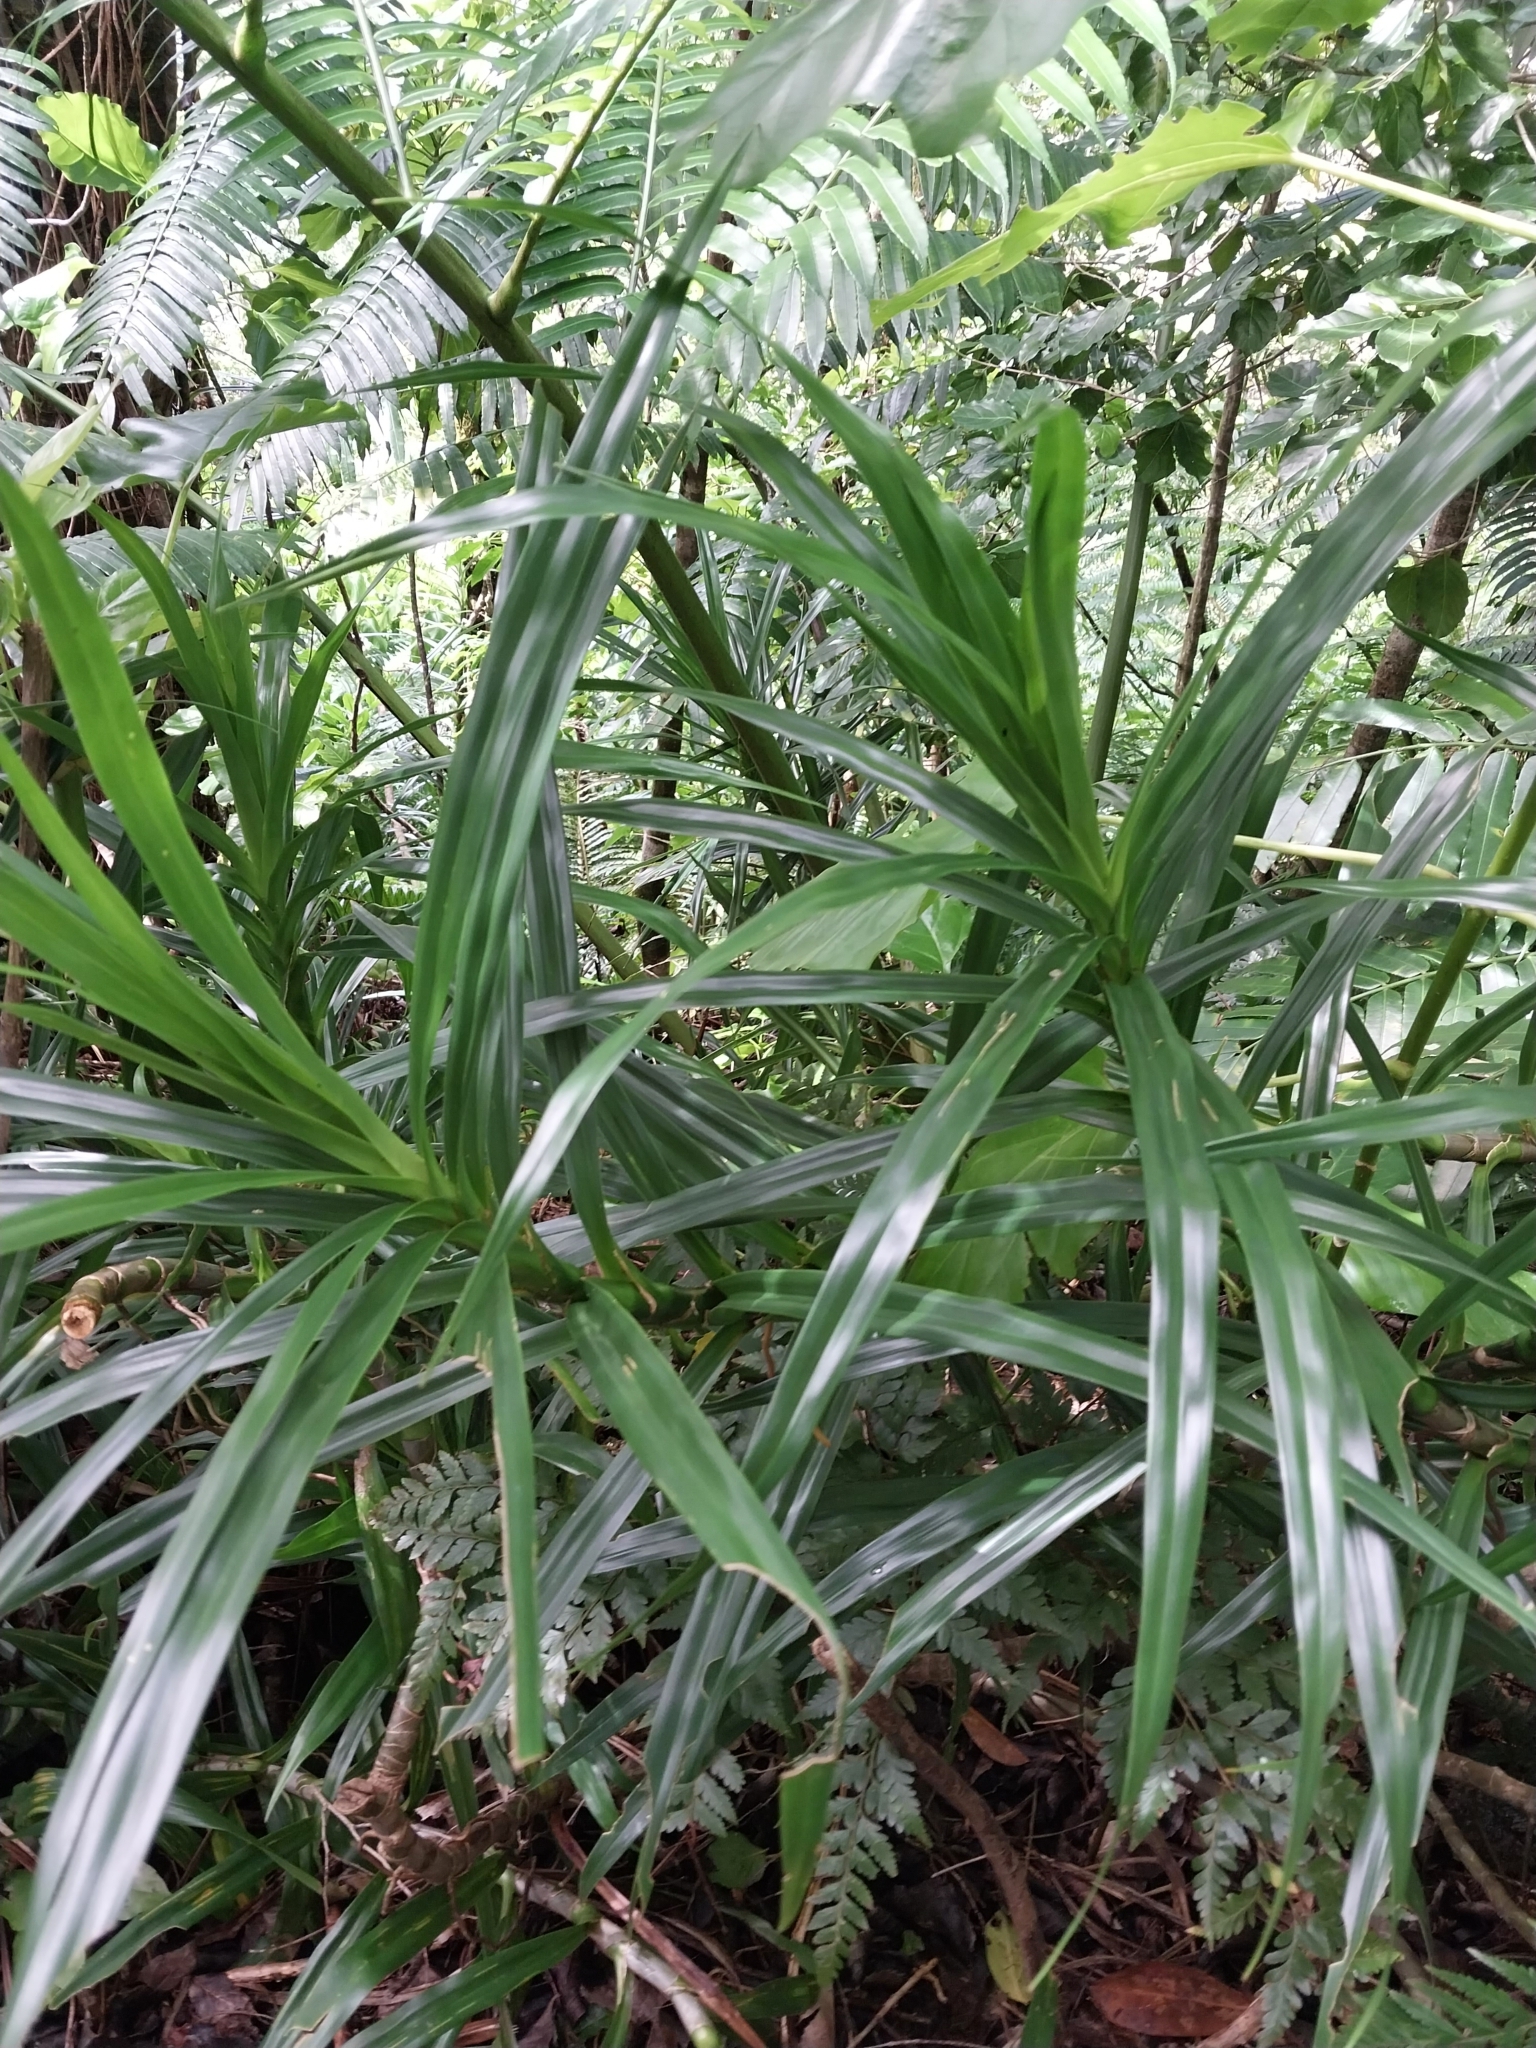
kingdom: Plantae
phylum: Tracheophyta
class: Liliopsida
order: Pandanales
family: Pandanaceae
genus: Freycinetia
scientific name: Freycinetia arborea
